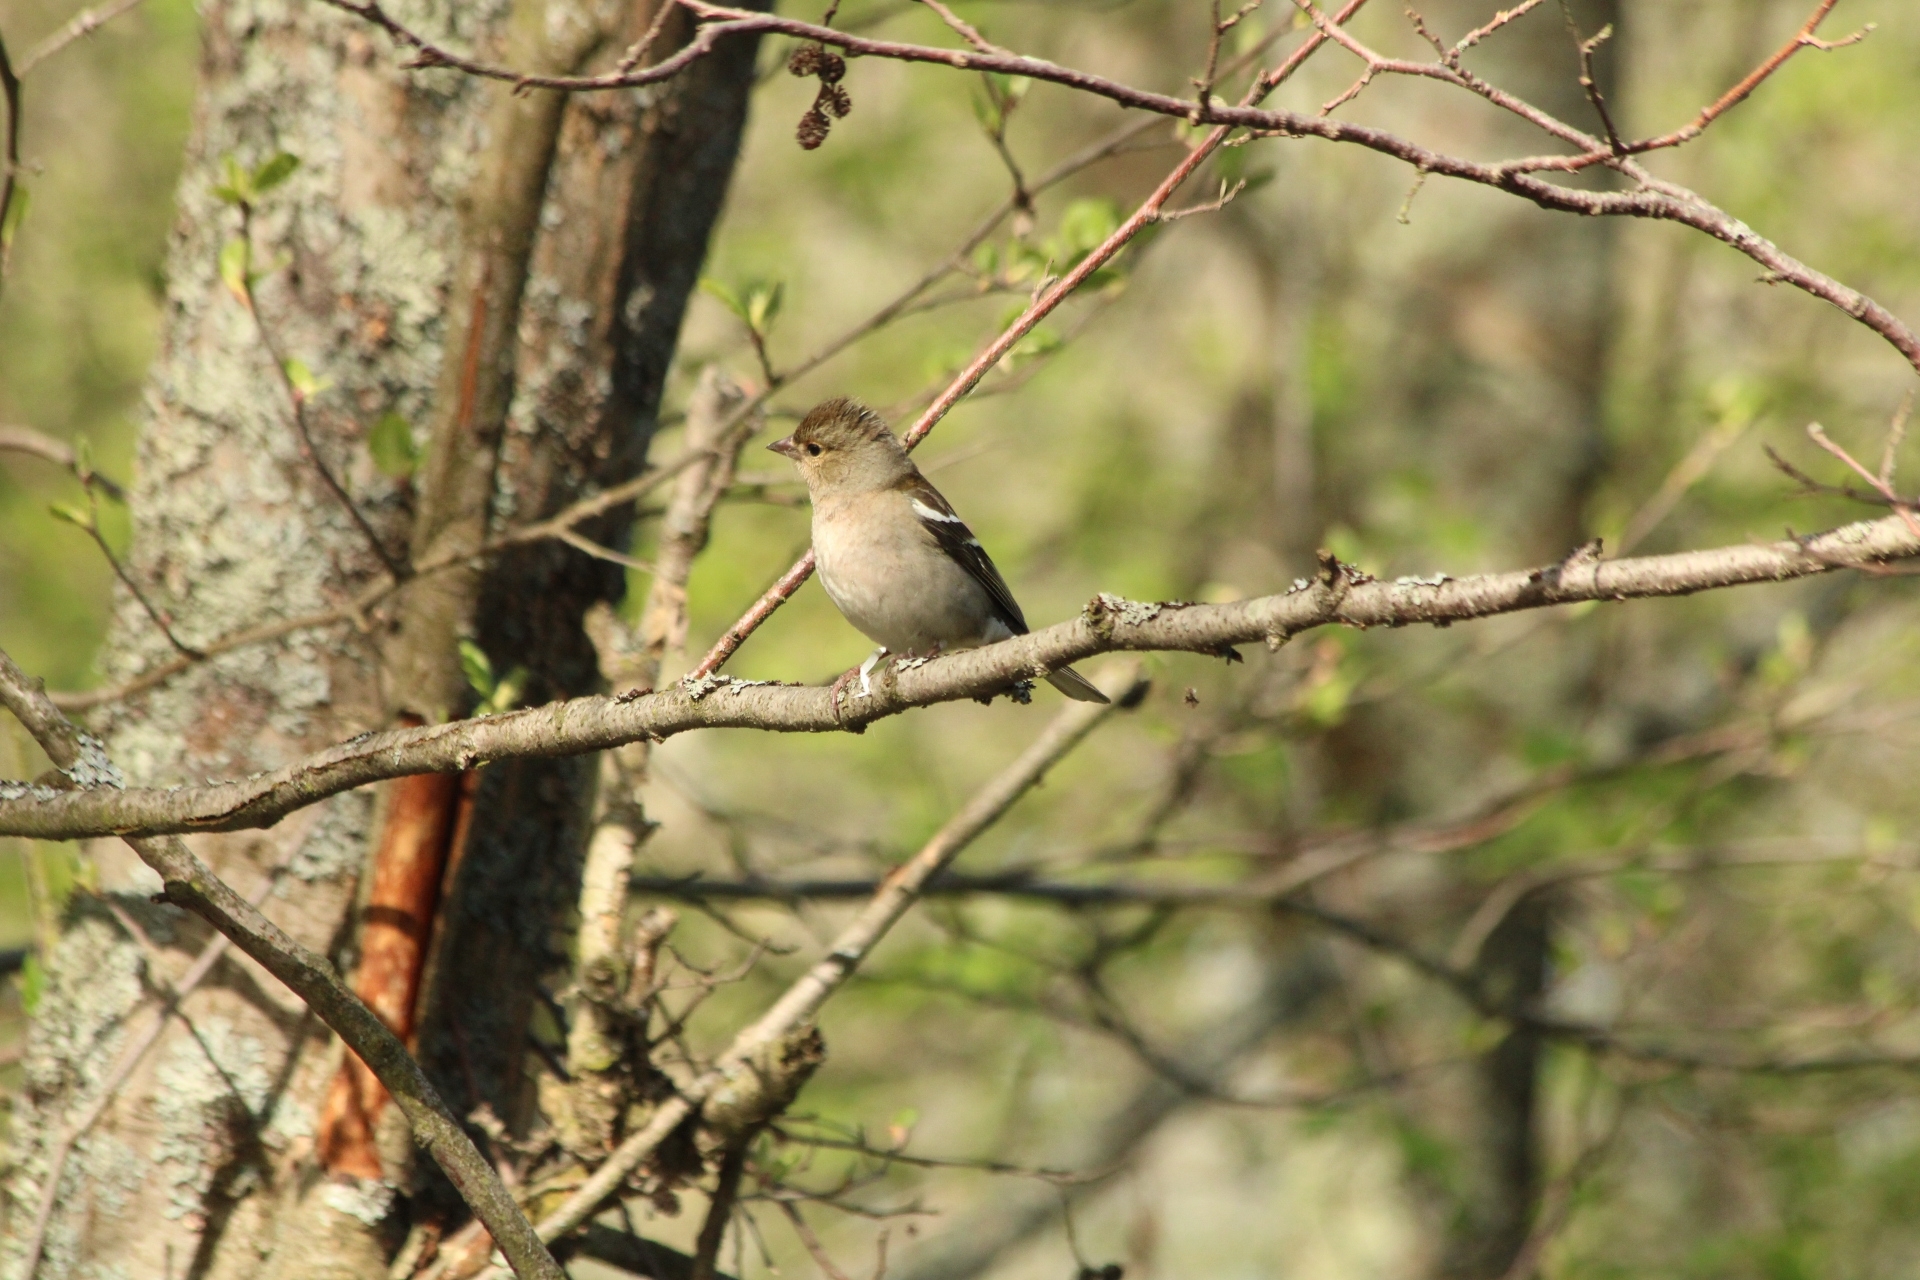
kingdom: Animalia
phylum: Chordata
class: Aves
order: Passeriformes
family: Fringillidae
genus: Fringilla
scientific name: Fringilla coelebs
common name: Common chaffinch
